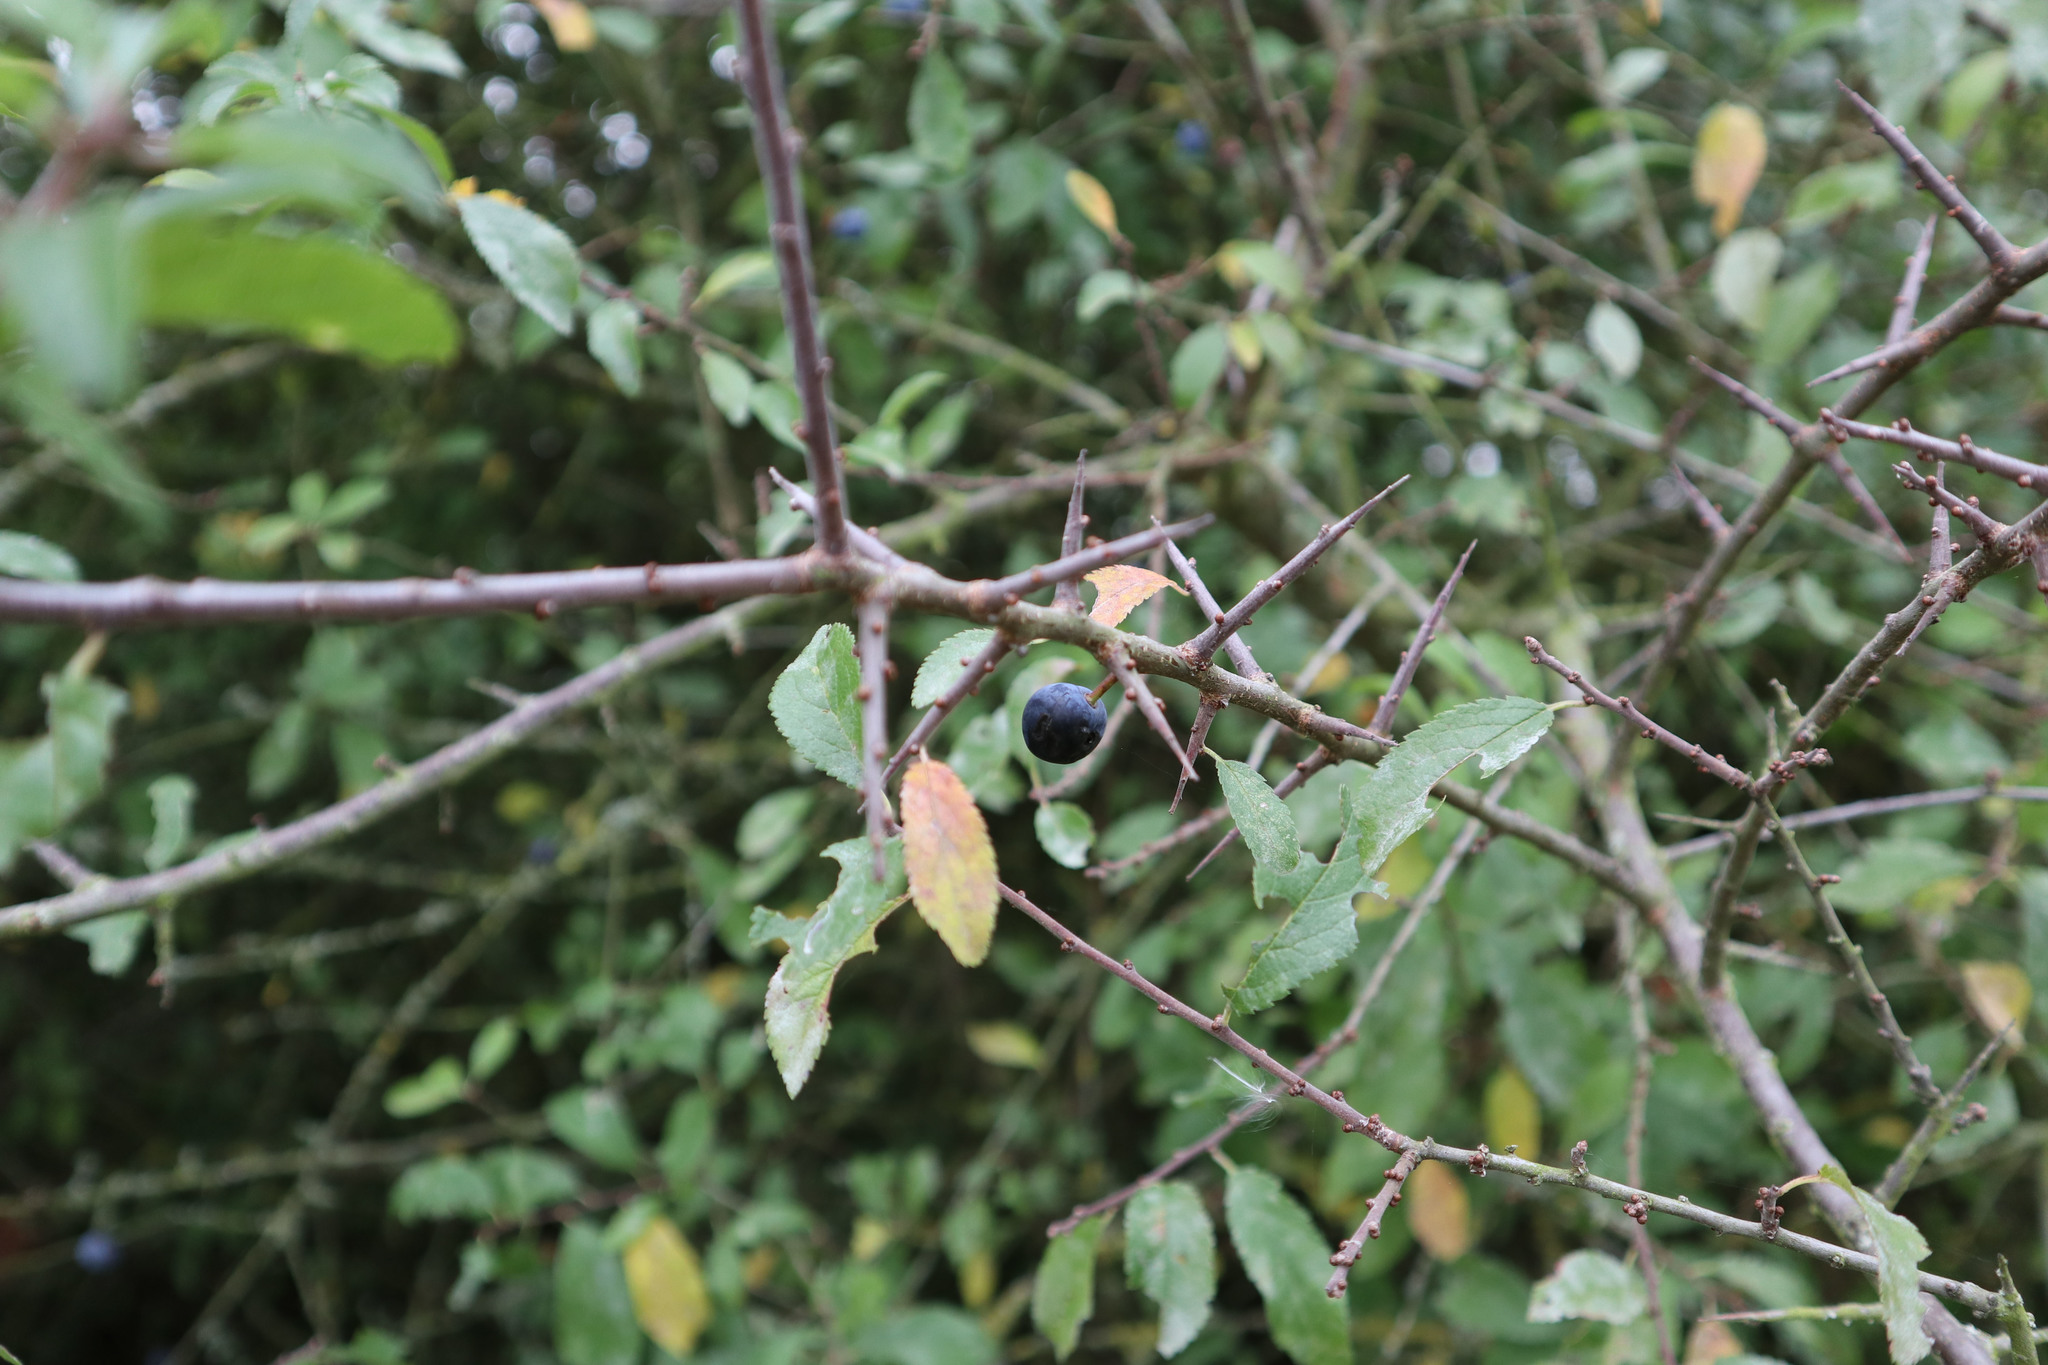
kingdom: Plantae
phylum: Tracheophyta
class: Magnoliopsida
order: Rosales
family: Rosaceae
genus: Prunus
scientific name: Prunus spinosa
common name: Blackthorn
